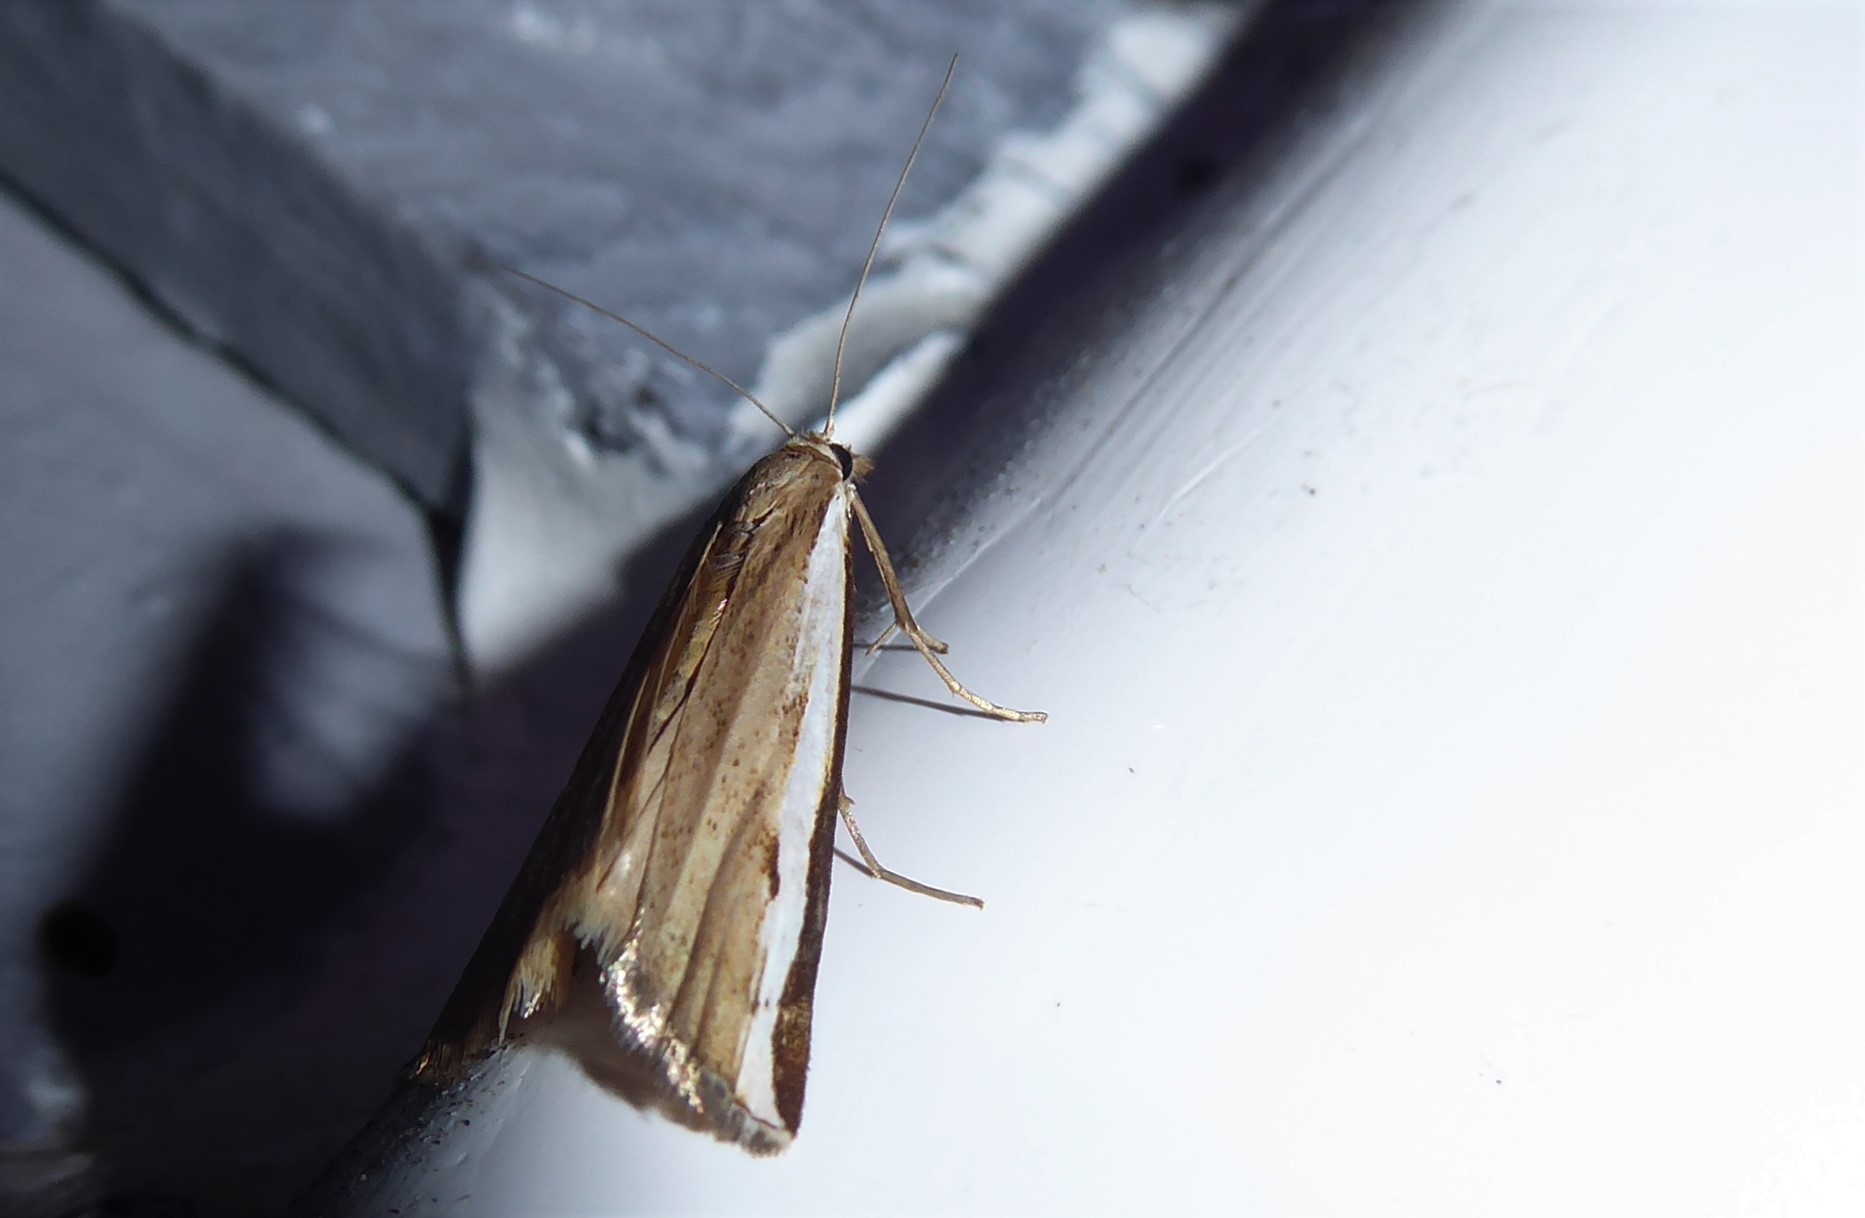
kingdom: Animalia
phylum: Arthropoda
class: Insecta
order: Lepidoptera
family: Crambidae
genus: Orocrambus
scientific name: Orocrambus flexuosellus
